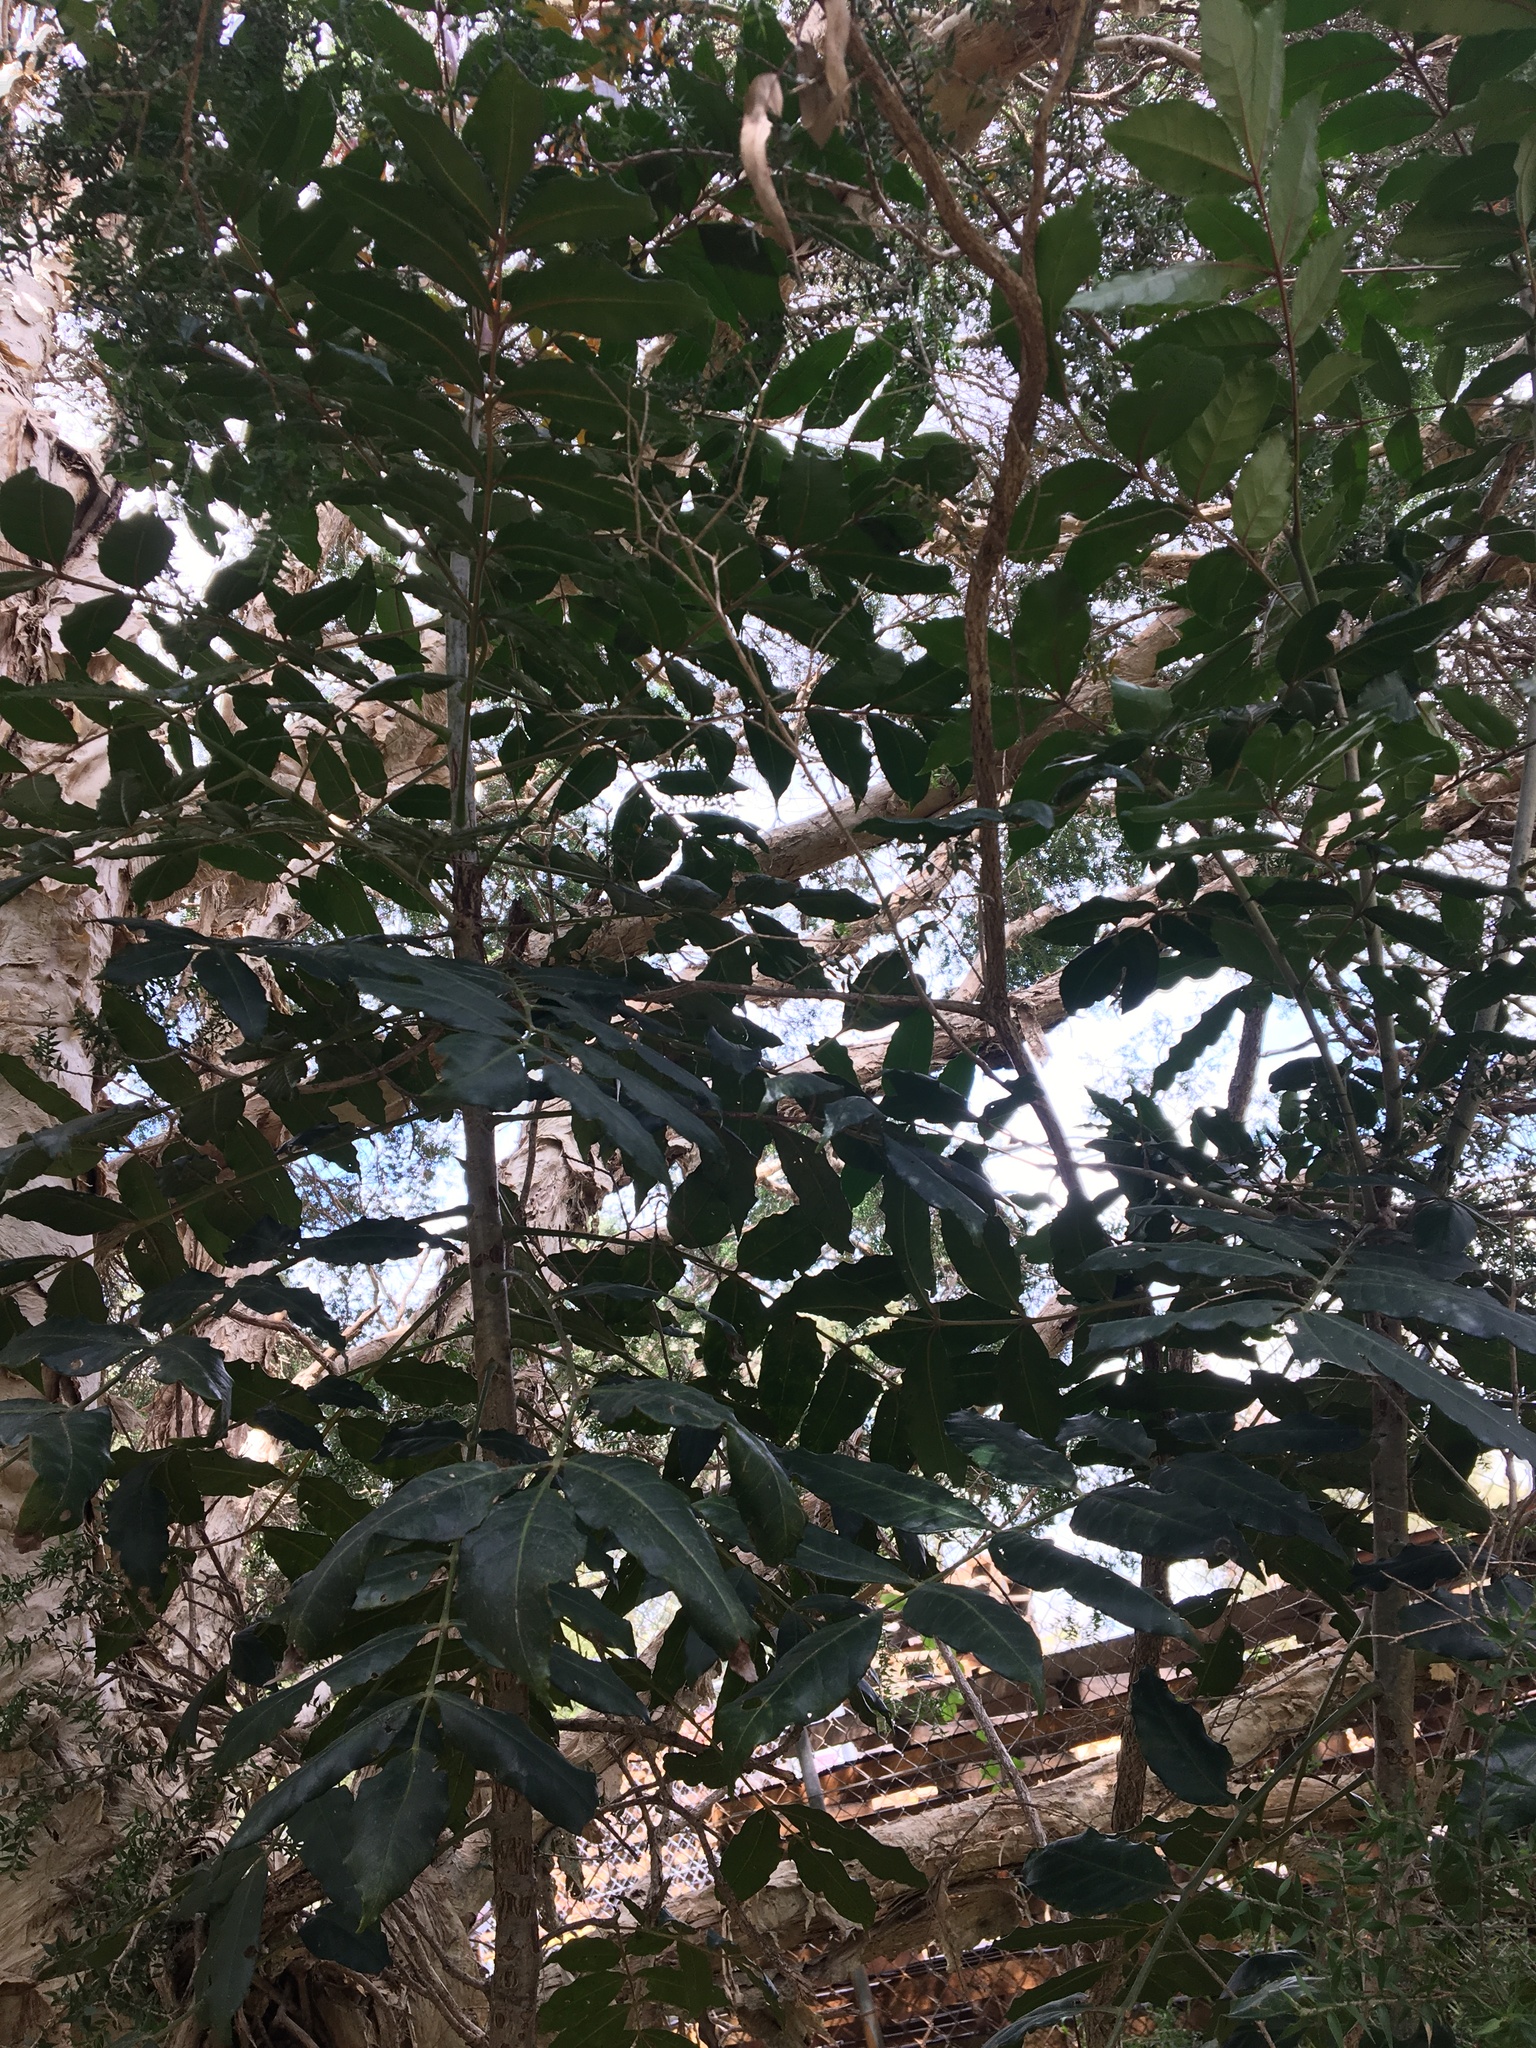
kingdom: Plantae
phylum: Tracheophyta
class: Magnoliopsida
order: Sapindales
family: Anacardiaceae
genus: Harpephyllum
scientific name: Harpephyllum caffrum
